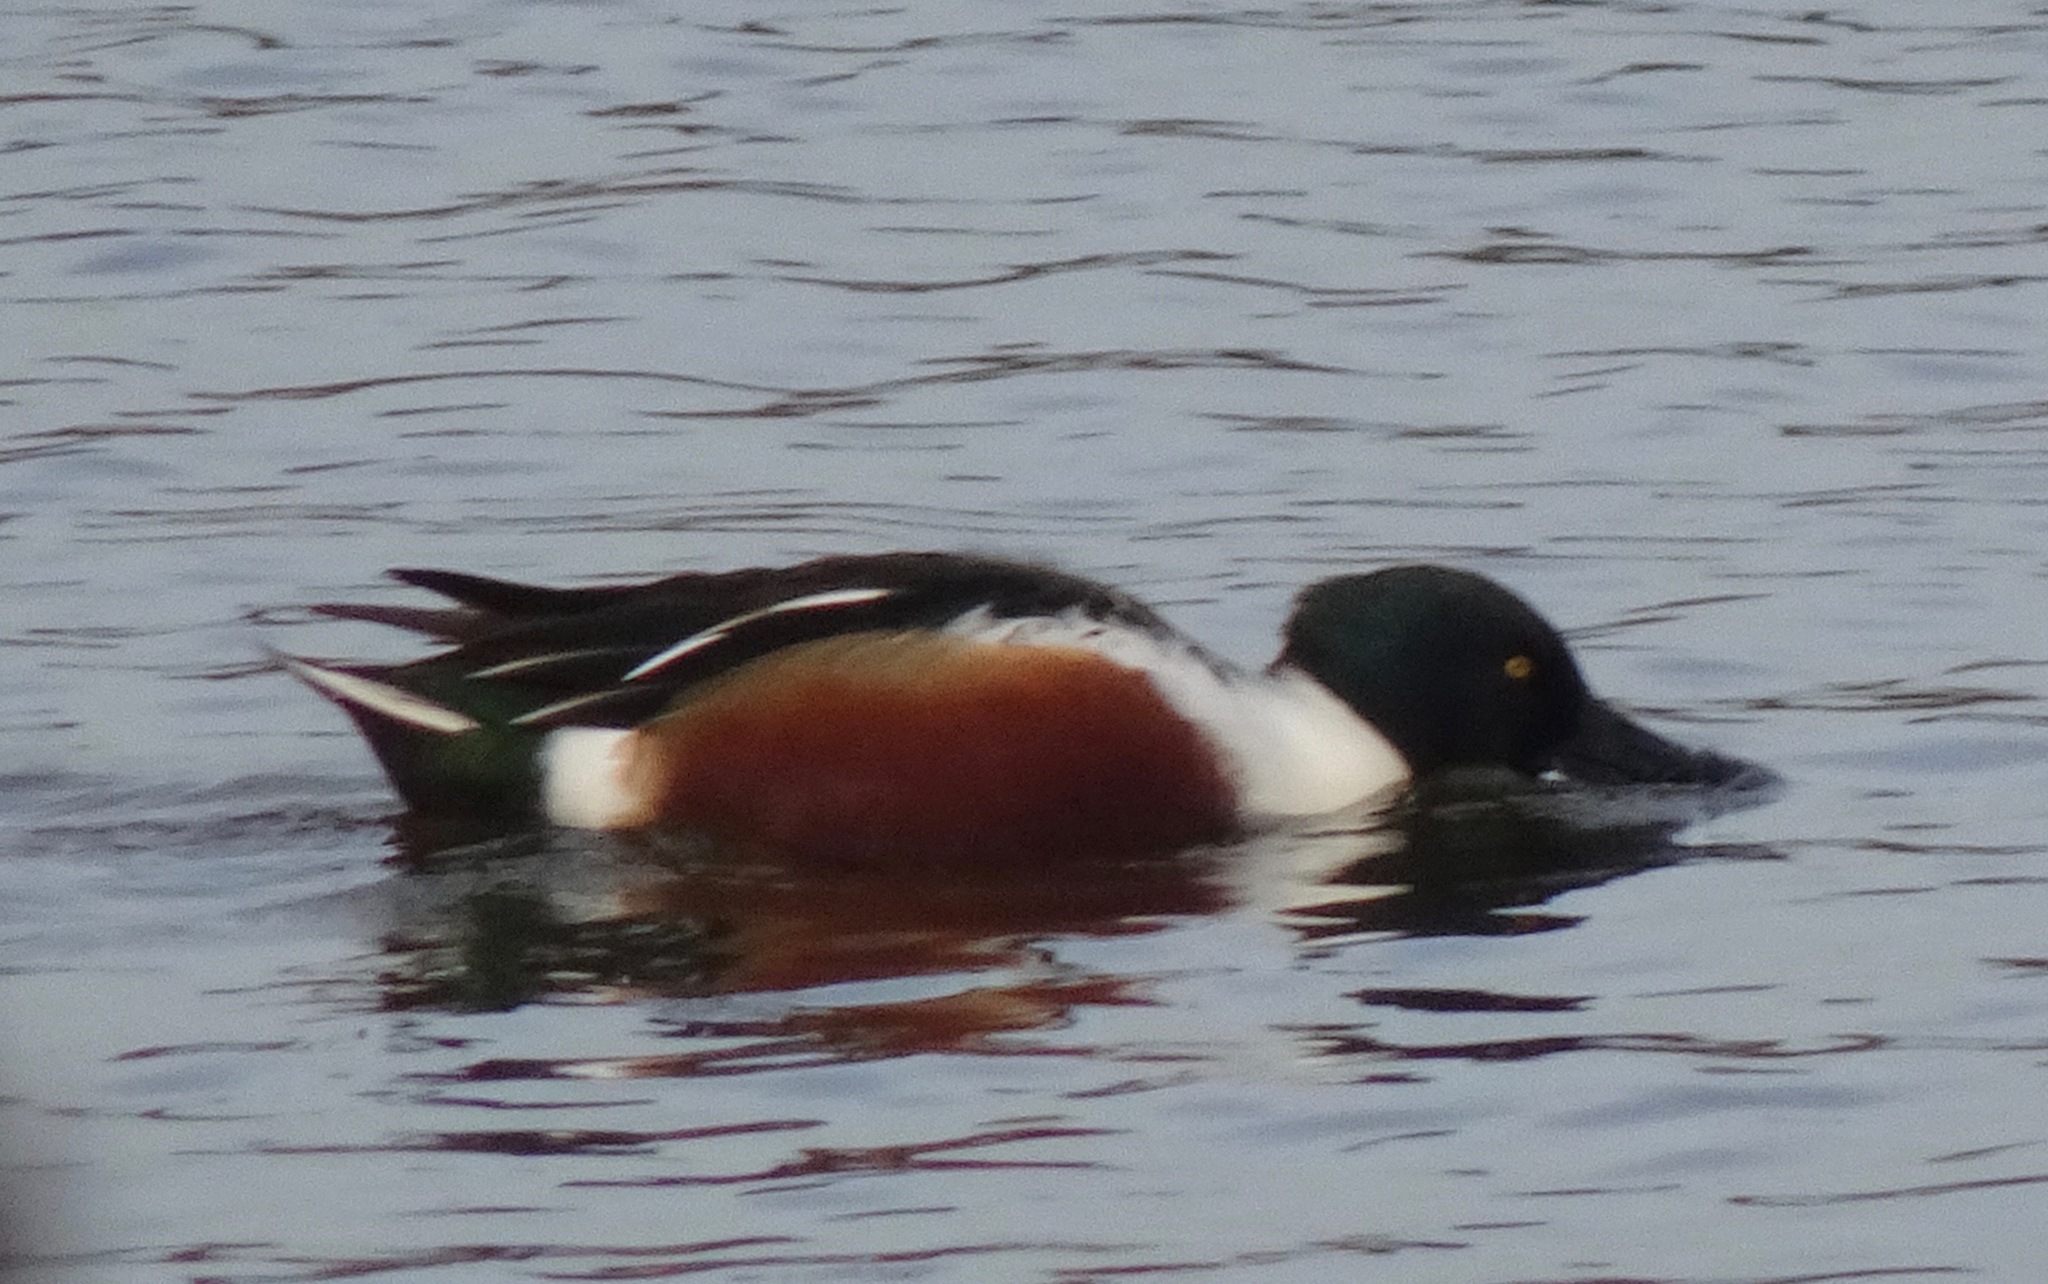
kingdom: Animalia
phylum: Chordata
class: Aves
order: Anseriformes
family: Anatidae
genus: Spatula
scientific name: Spatula clypeata
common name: Northern shoveler
